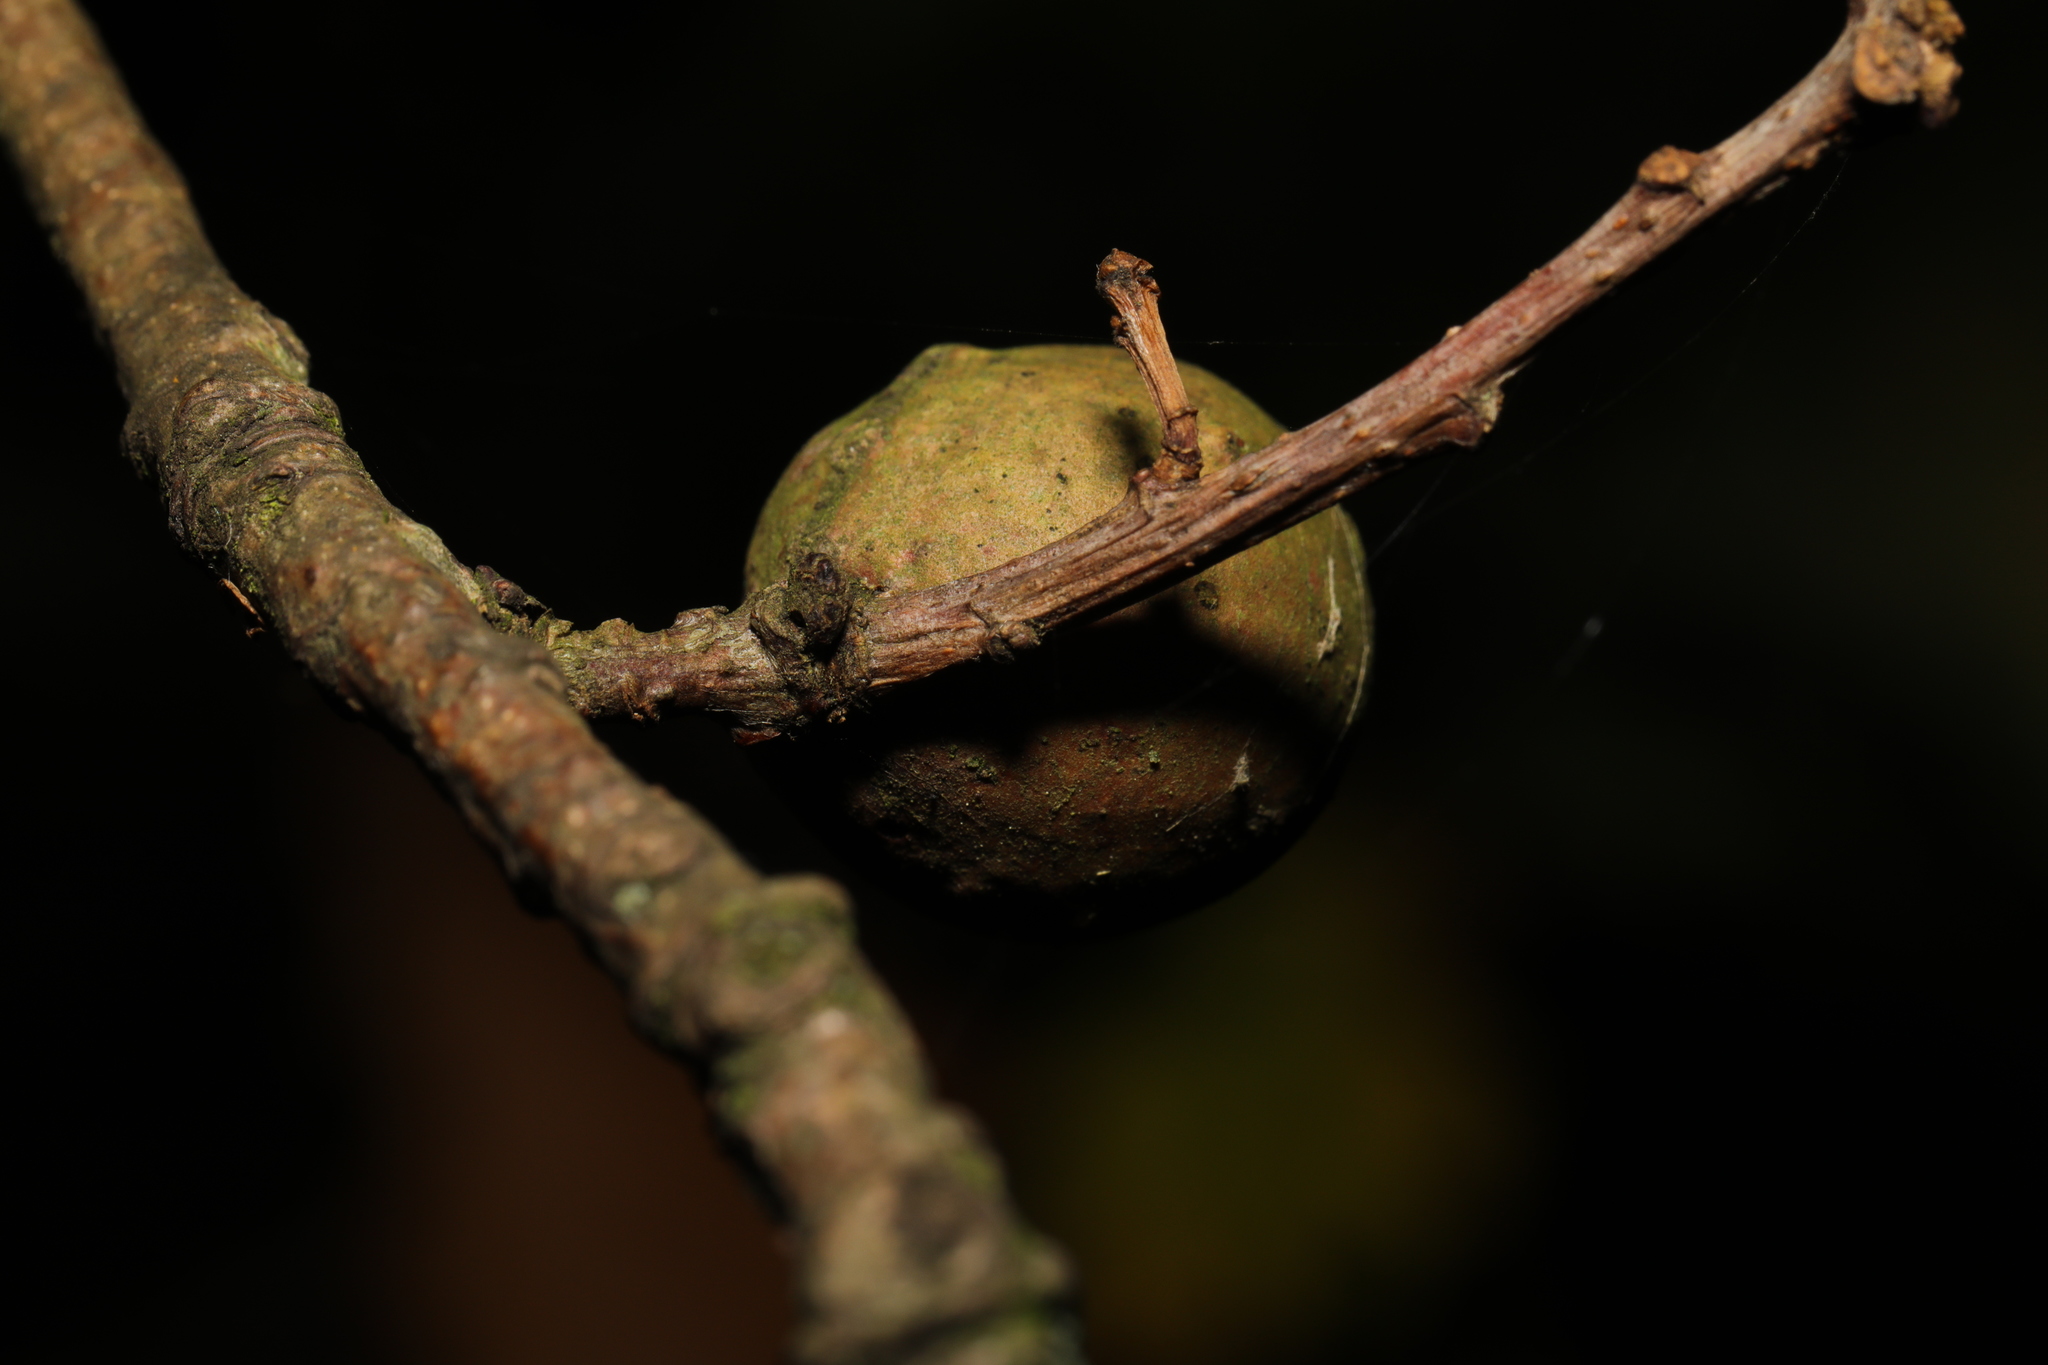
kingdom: Animalia
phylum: Arthropoda
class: Insecta
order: Hymenoptera
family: Cynipidae
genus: Andricus
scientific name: Andricus kollari
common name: Marble gall
